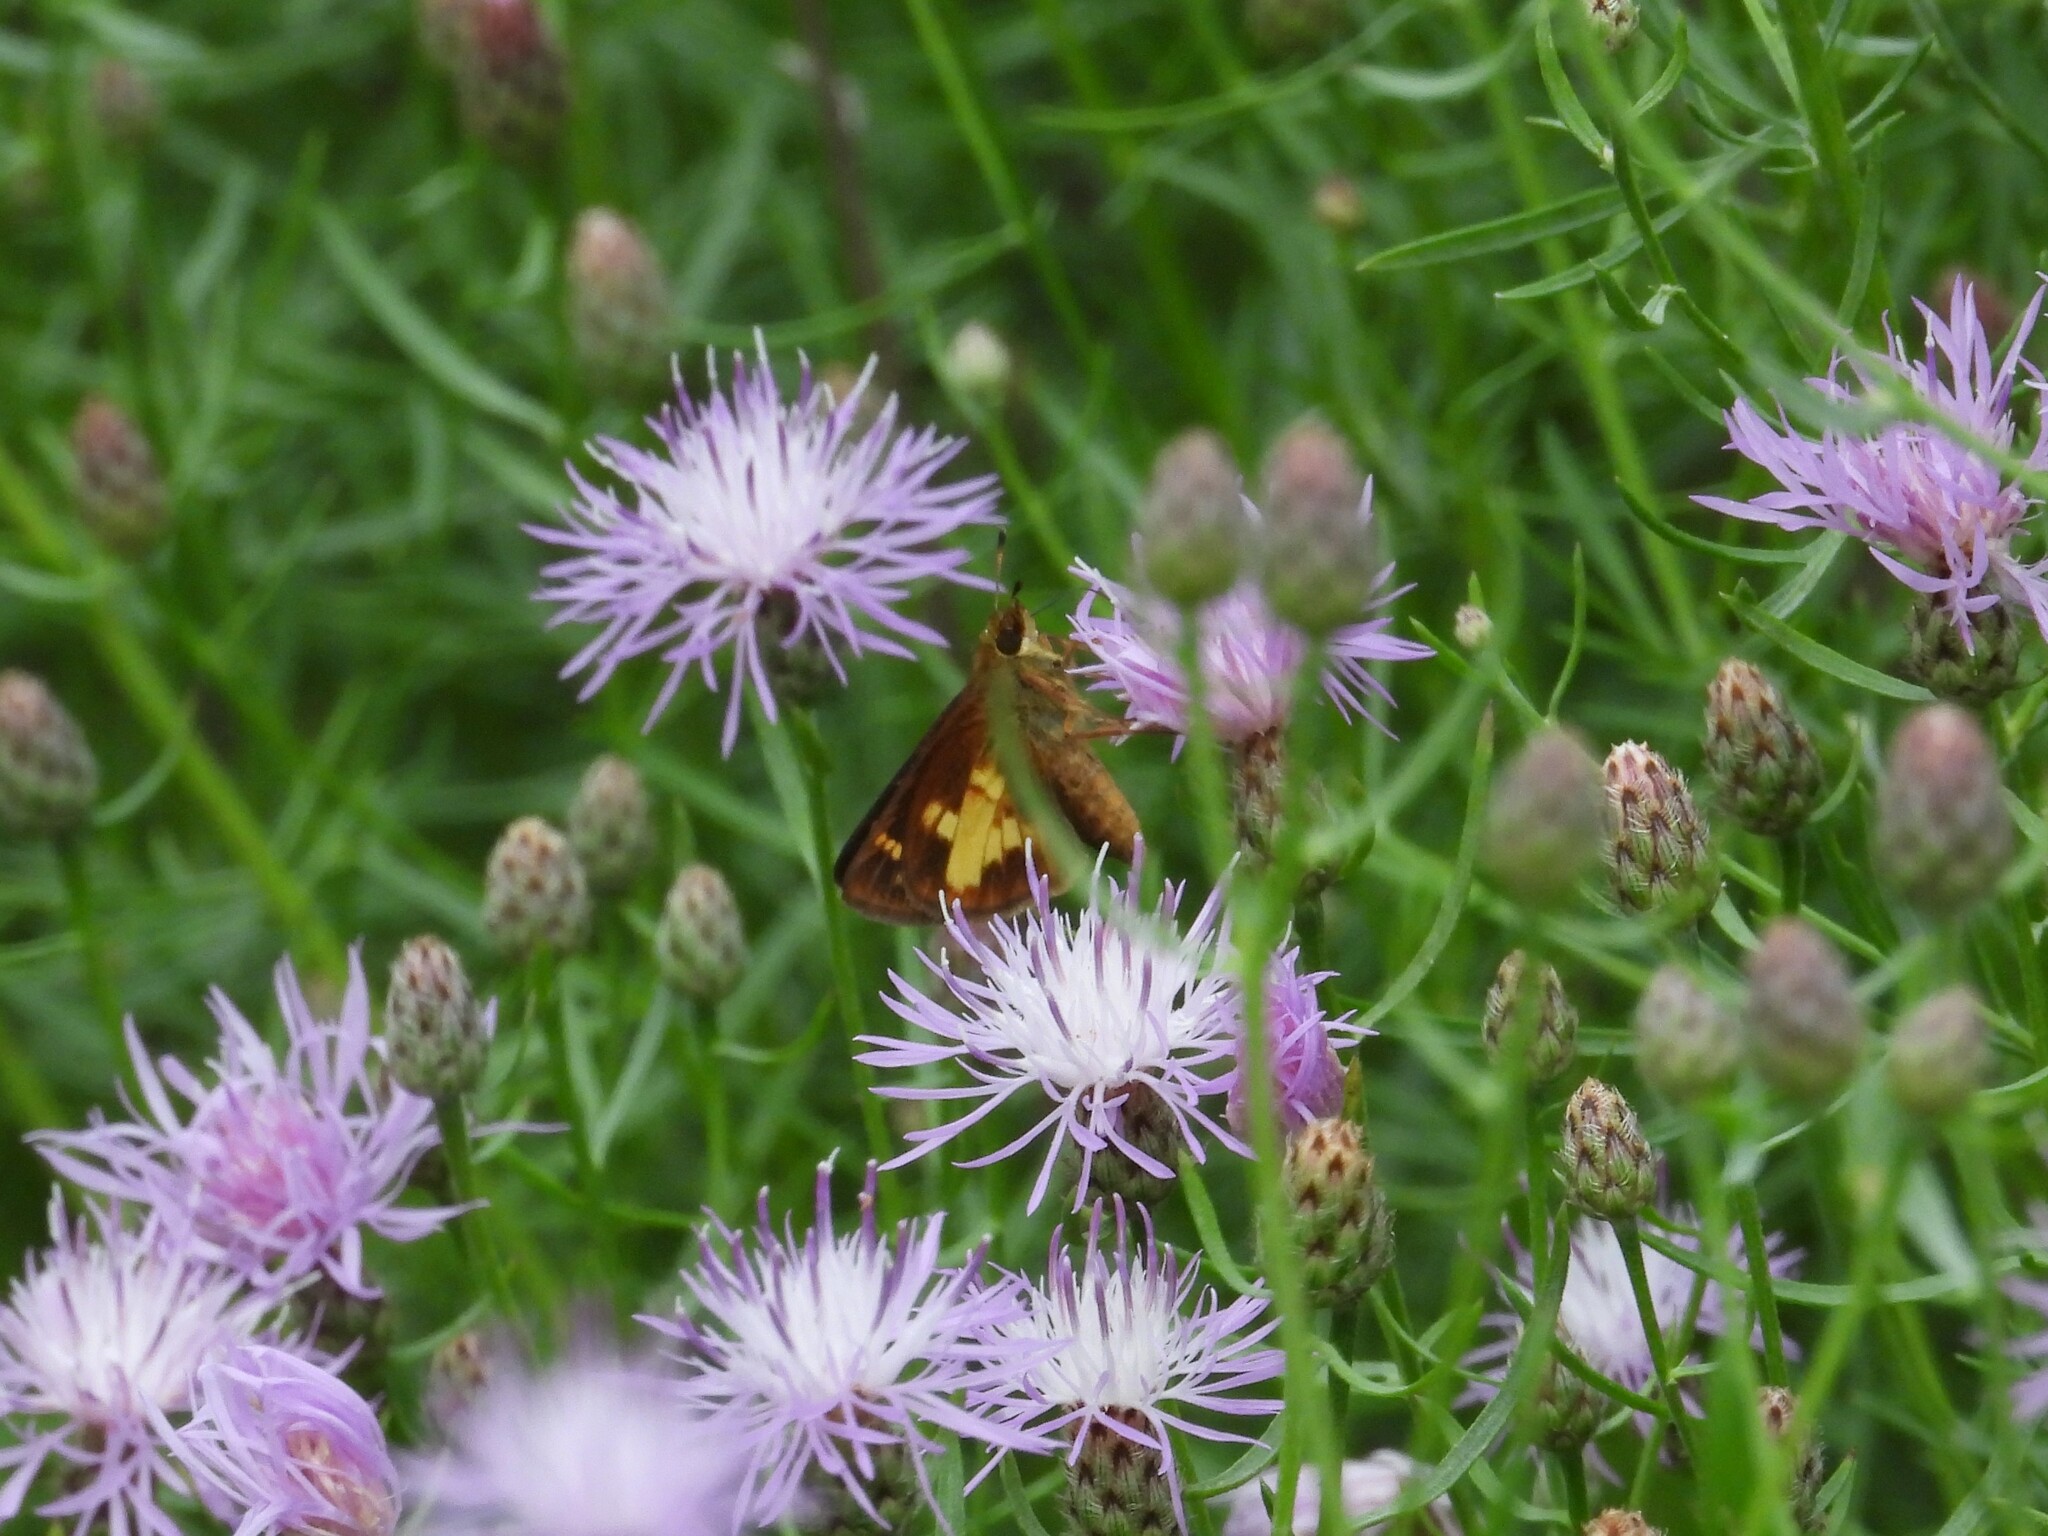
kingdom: Animalia
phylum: Arthropoda
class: Insecta
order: Lepidoptera
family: Hesperiidae
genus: Poanes
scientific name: Poanes massasoit
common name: Mulberrywing
